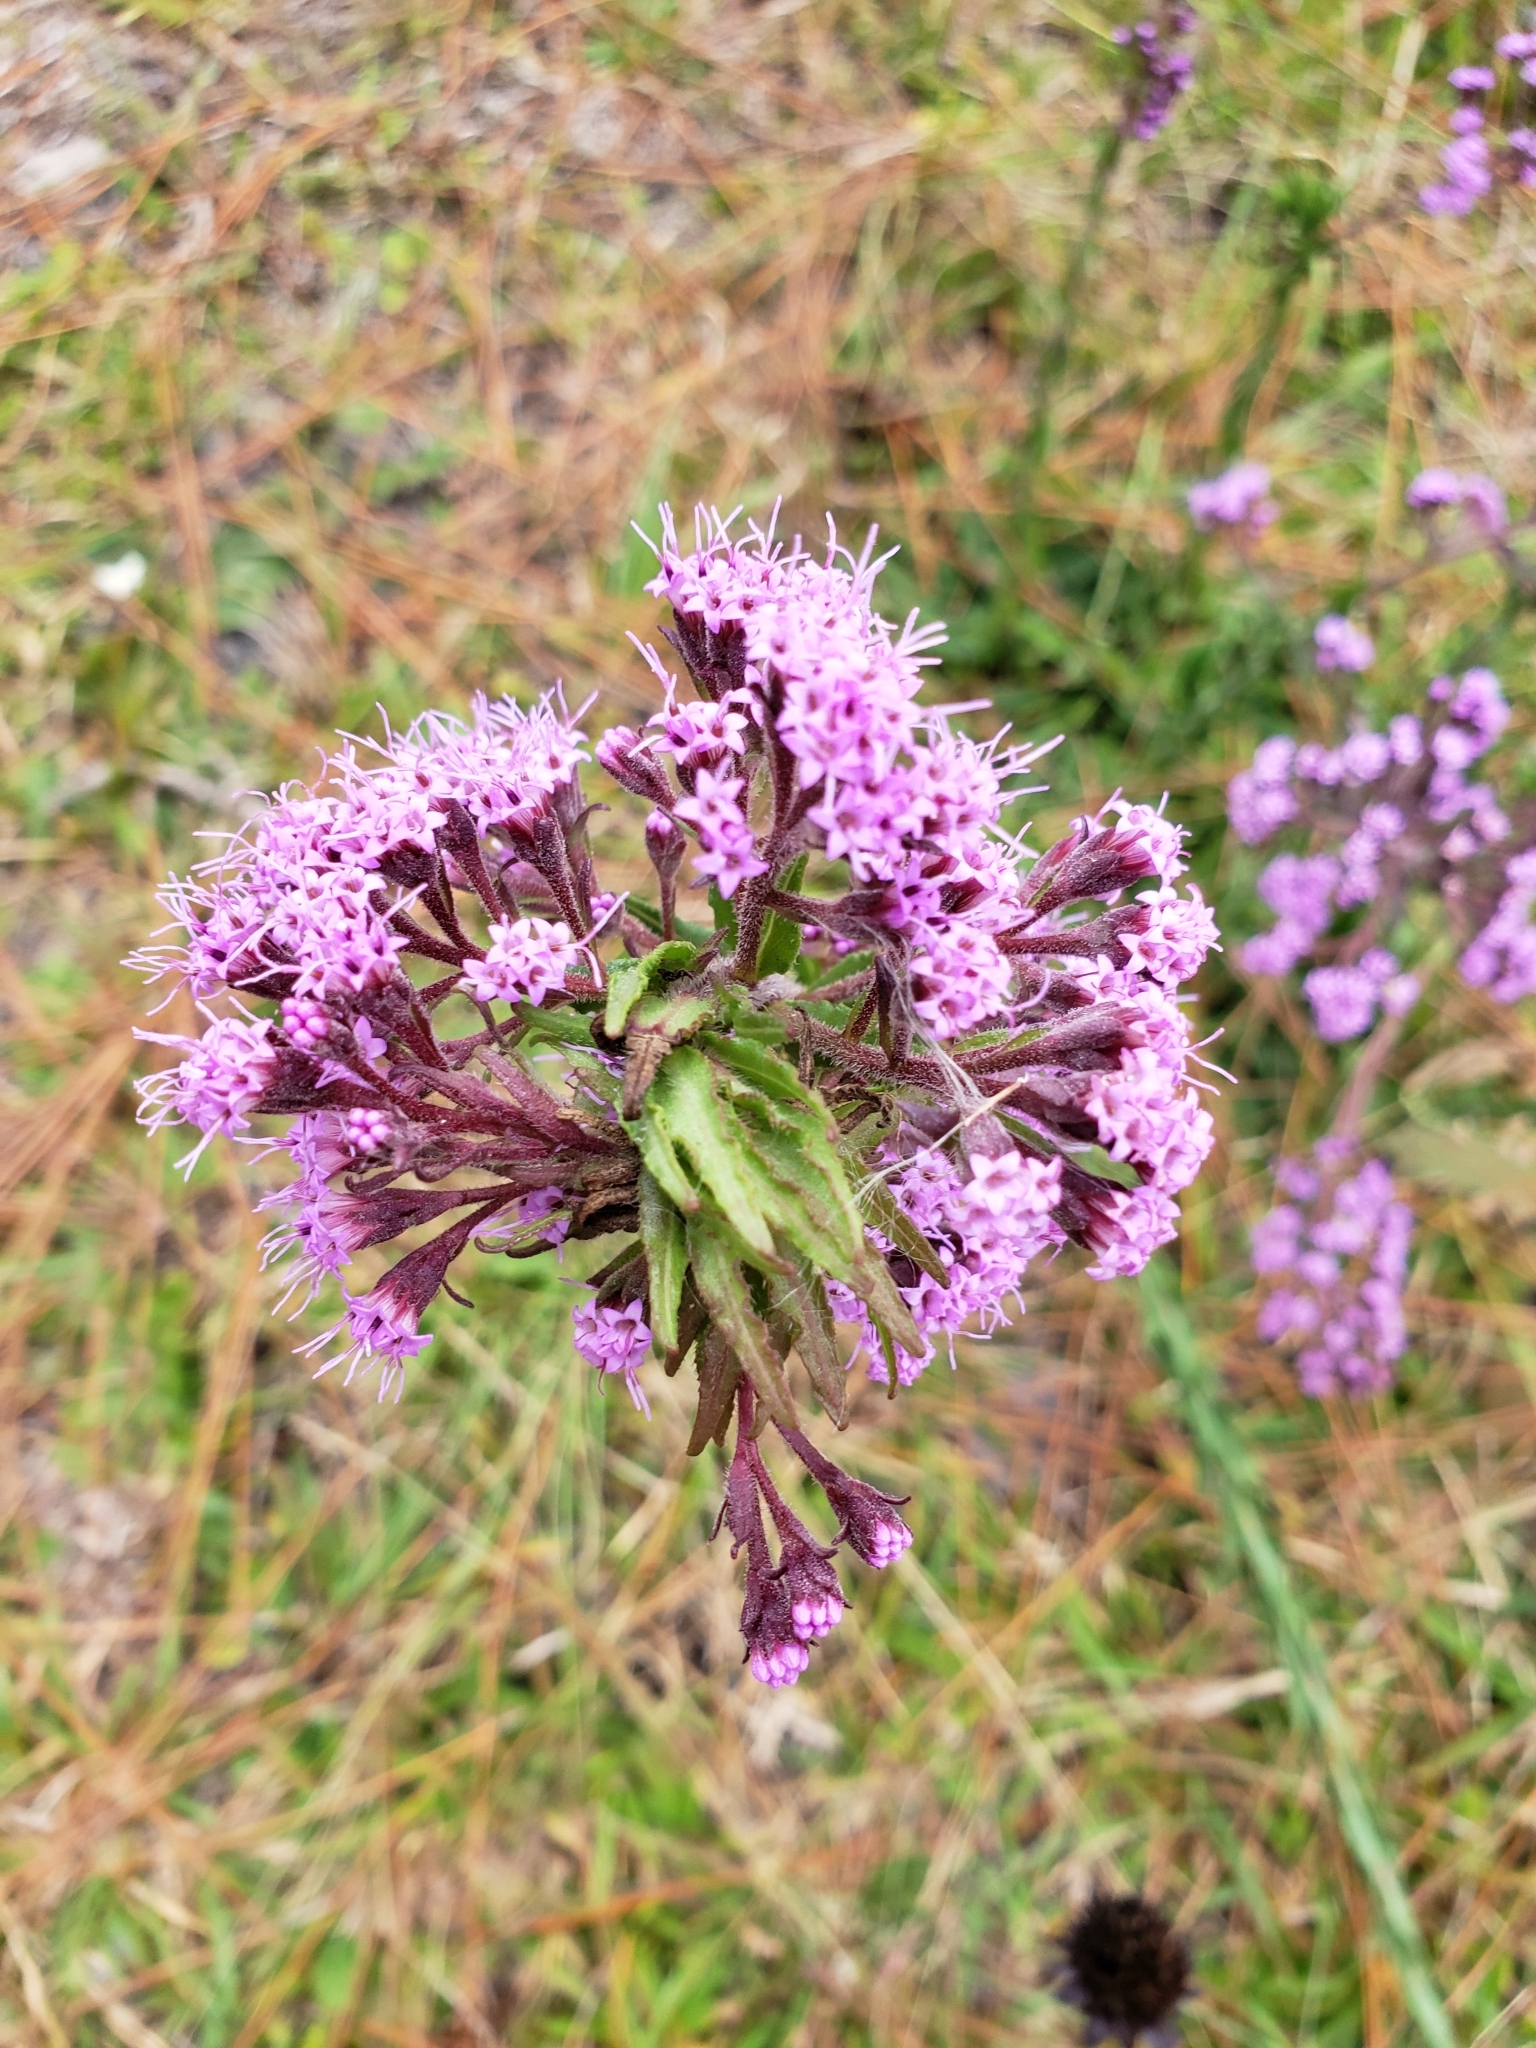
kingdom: Plantae
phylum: Tracheophyta
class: Magnoliopsida
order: Asterales
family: Asteraceae
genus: Carphephorus
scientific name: Carphephorus paniculatus
